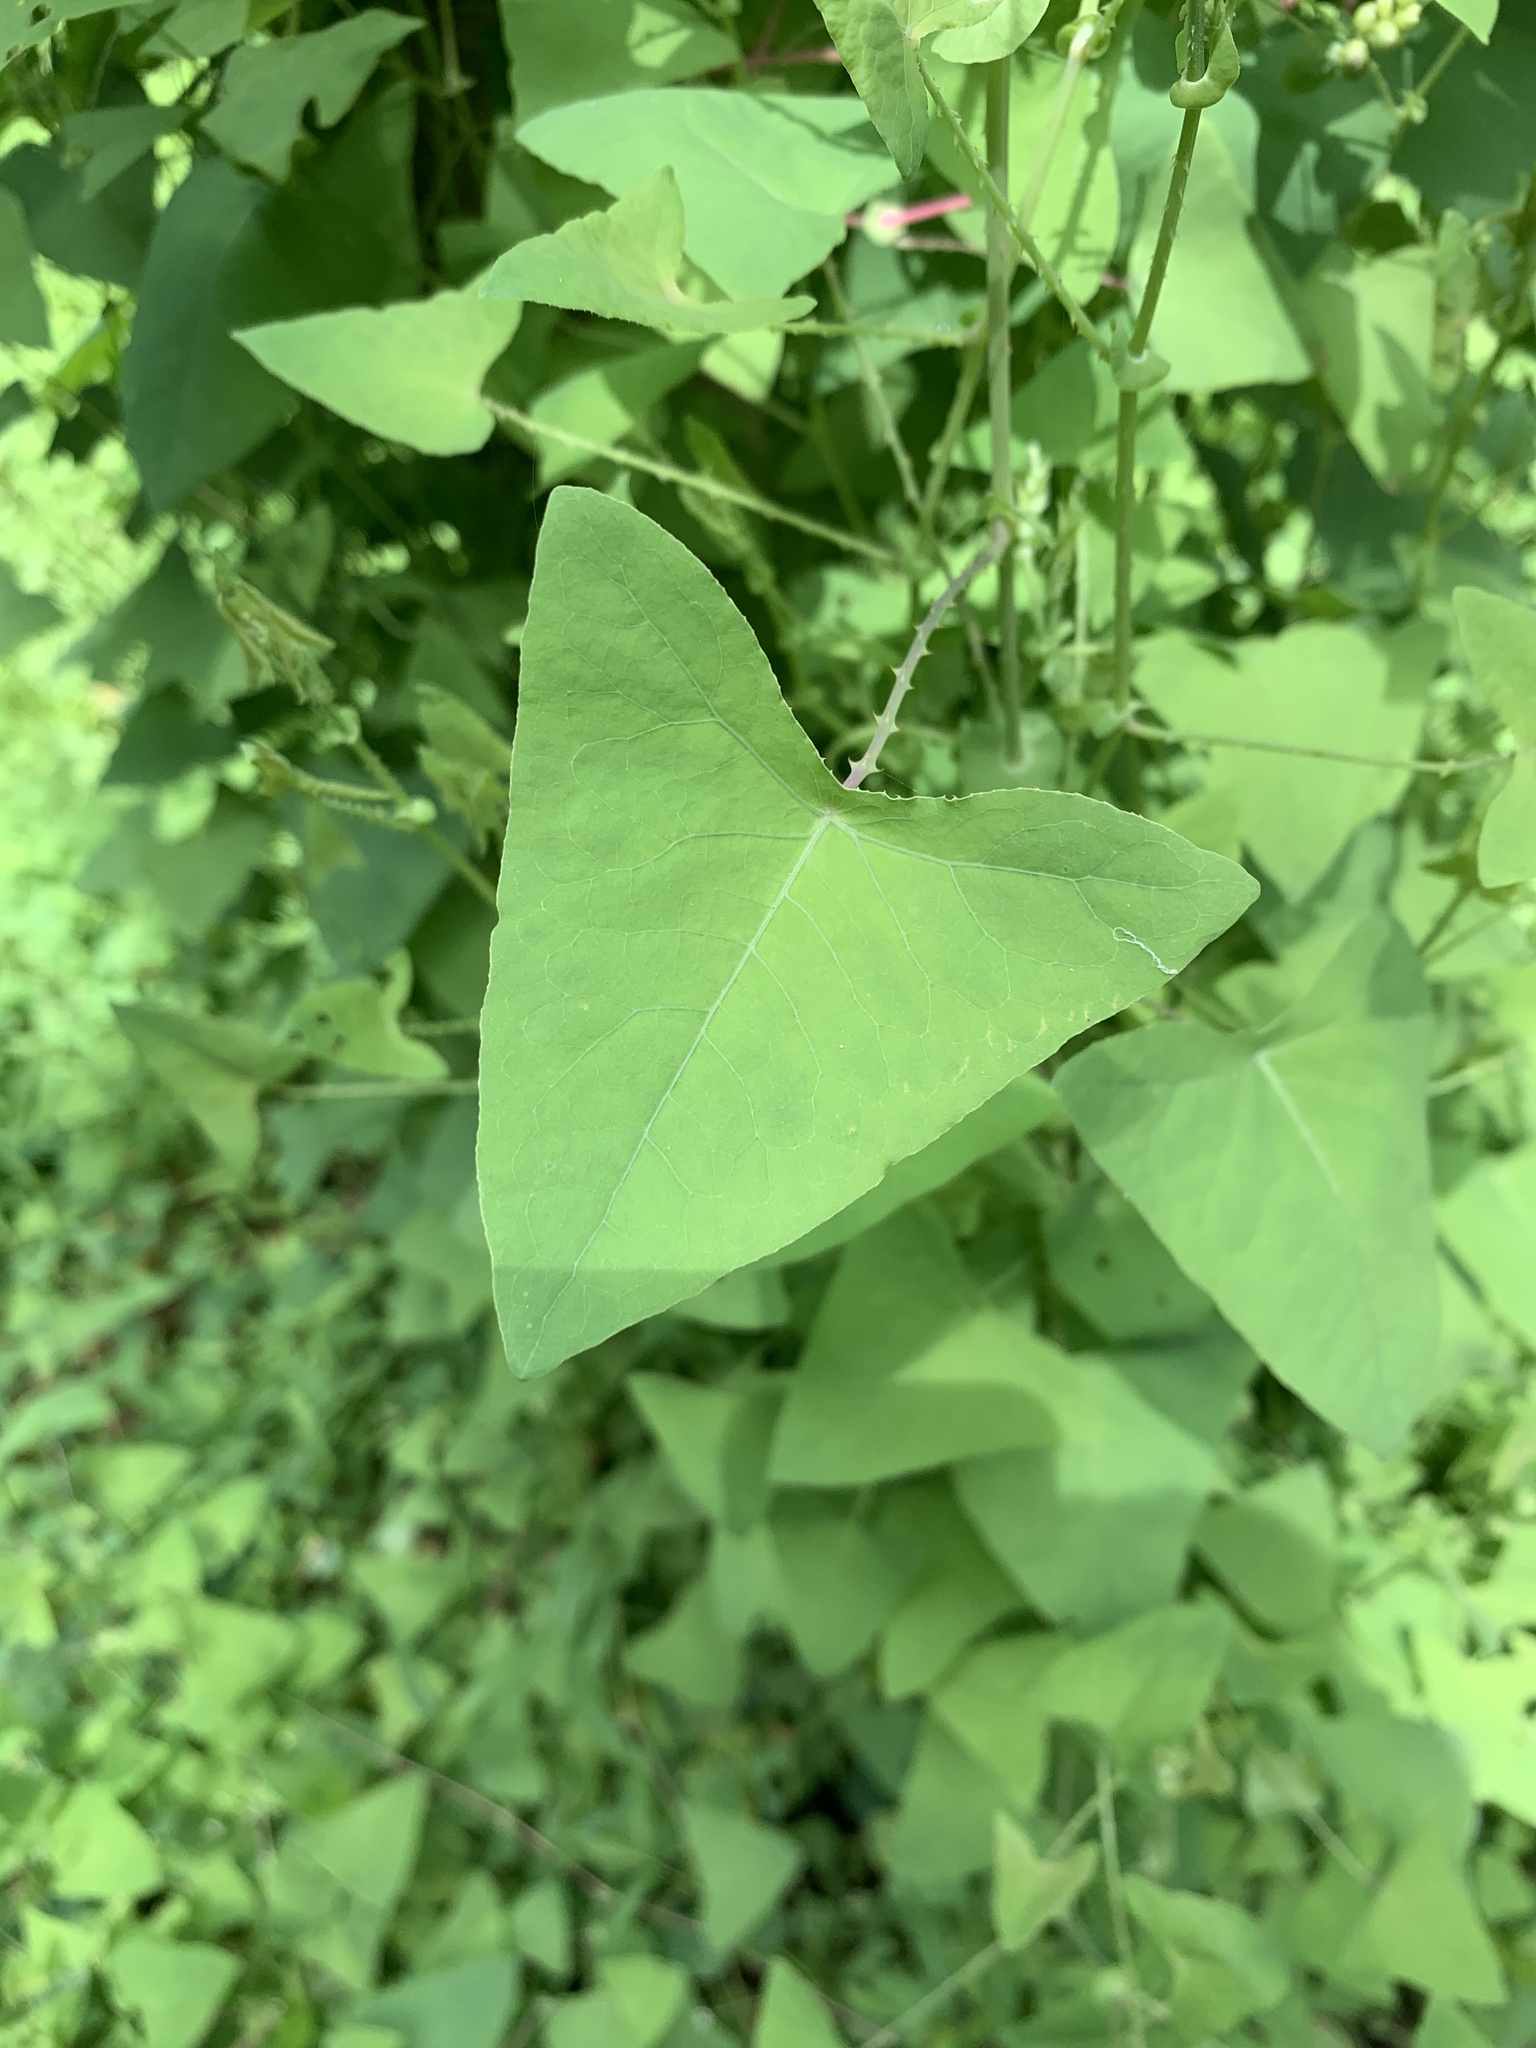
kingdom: Plantae
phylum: Tracheophyta
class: Magnoliopsida
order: Caryophyllales
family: Polygonaceae
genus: Persicaria
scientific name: Persicaria perfoliata
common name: Asiatic tearthumb
